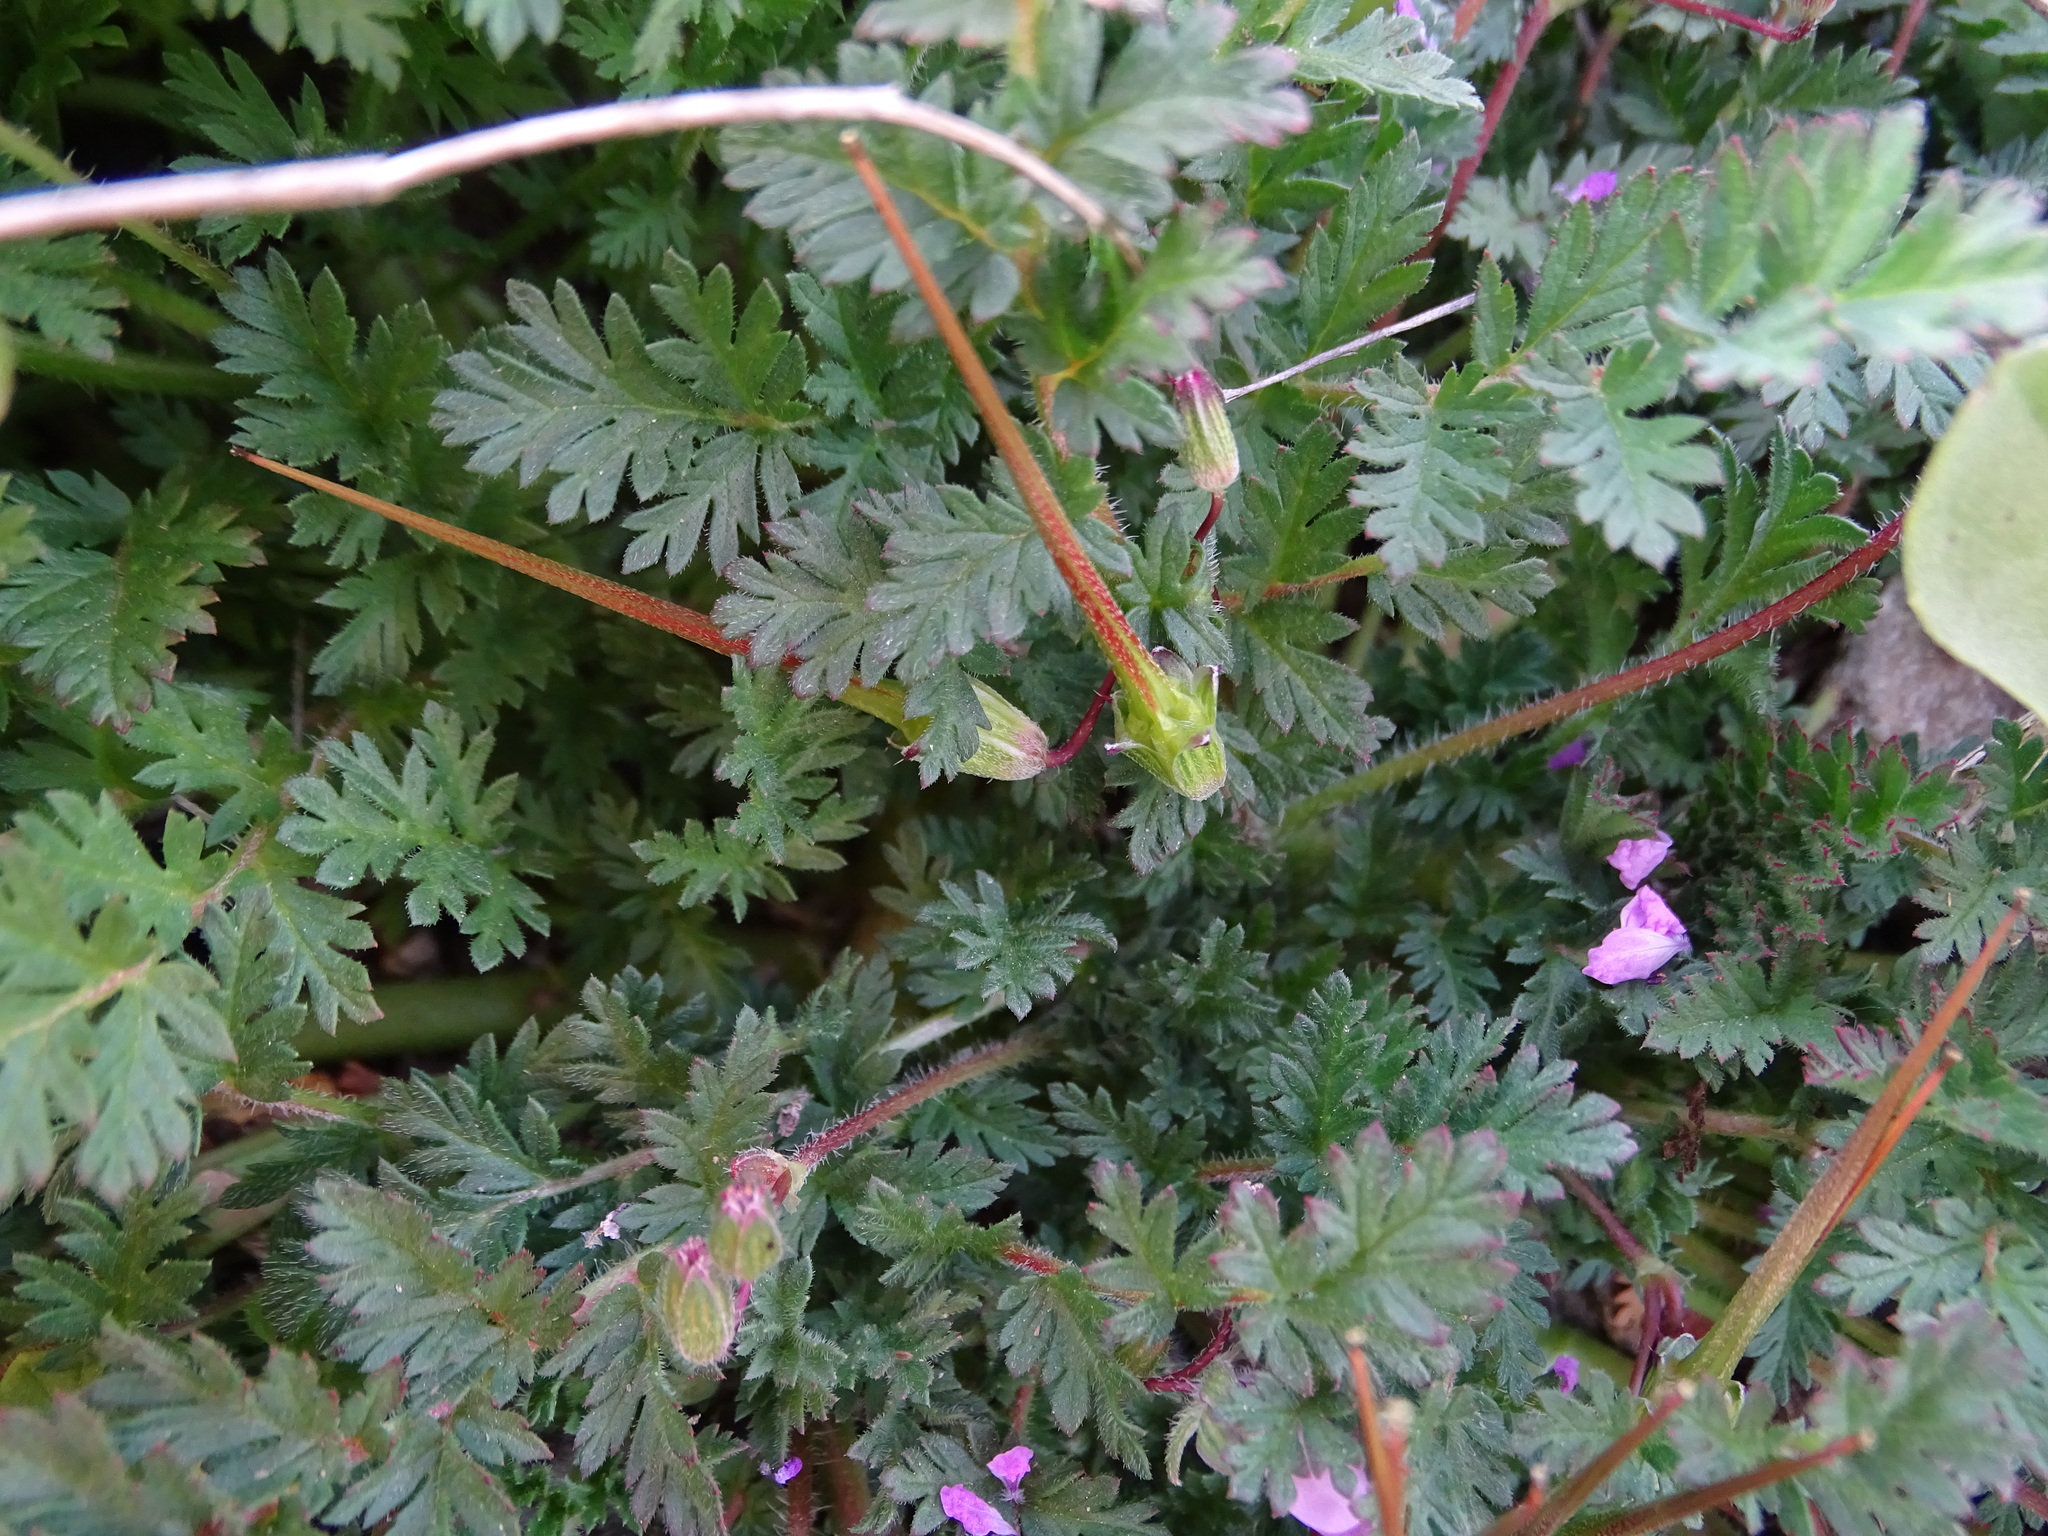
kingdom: Plantae
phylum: Tracheophyta
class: Magnoliopsida
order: Geraniales
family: Geraniaceae
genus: Erodium
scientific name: Erodium cicutarium
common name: Common stork's-bill
